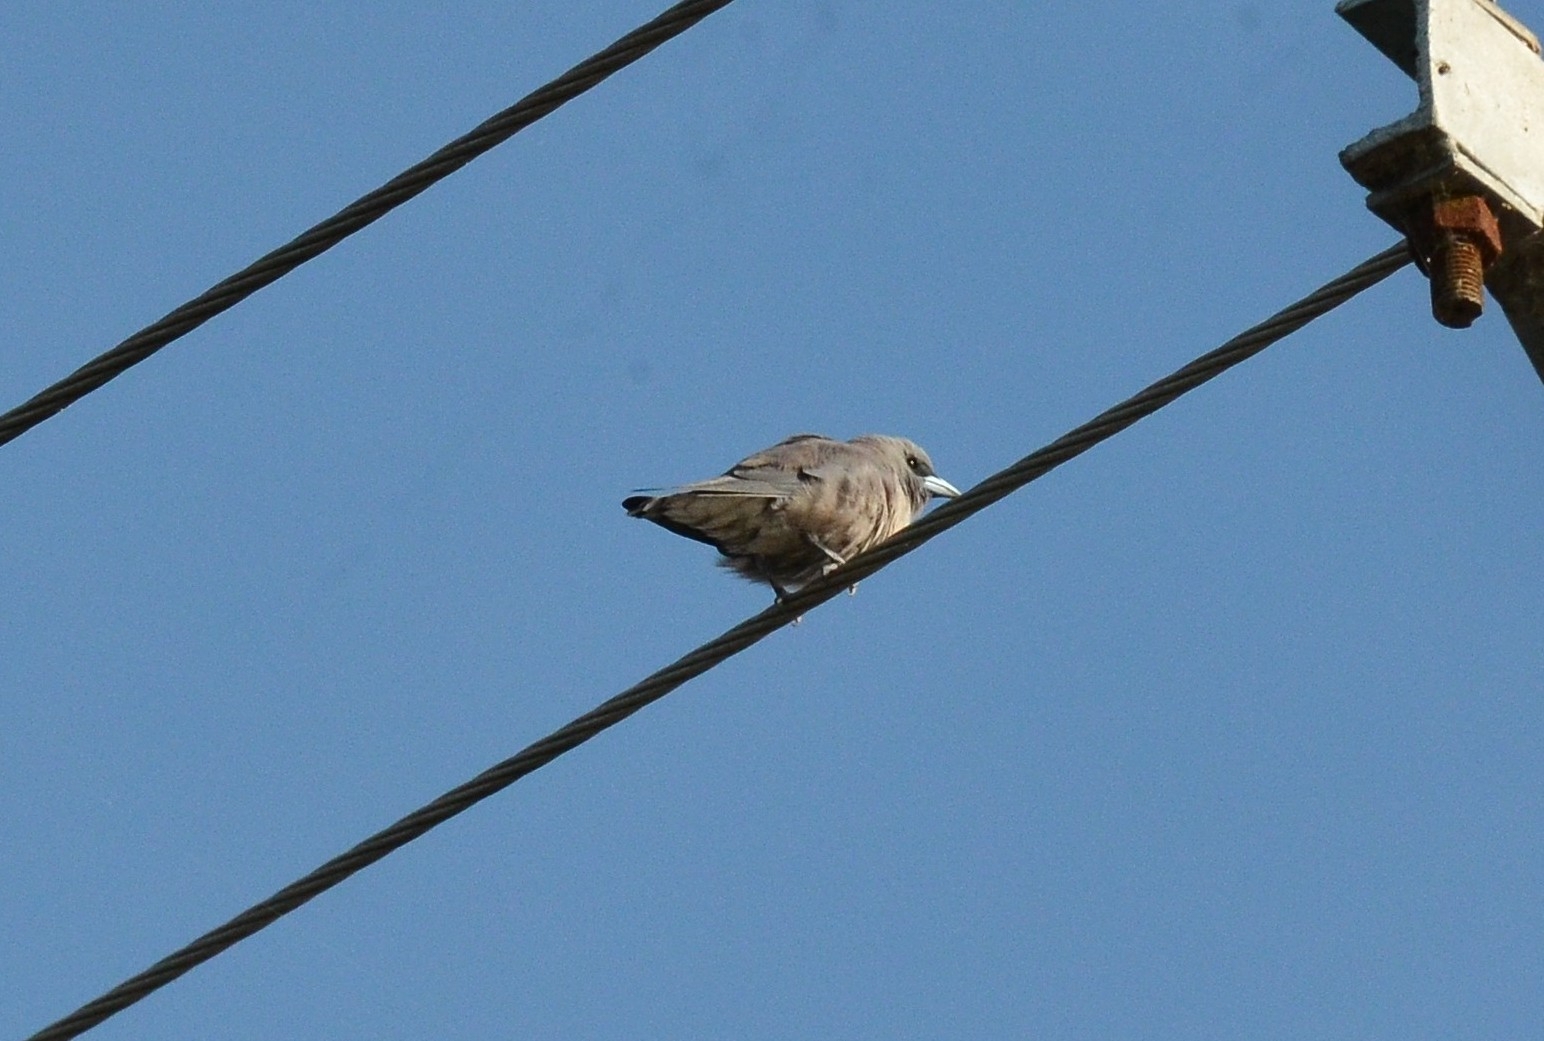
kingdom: Animalia
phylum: Chordata
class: Aves
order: Passeriformes
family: Artamidae
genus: Artamus
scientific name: Artamus fuscus
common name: Ashy woodswallow
